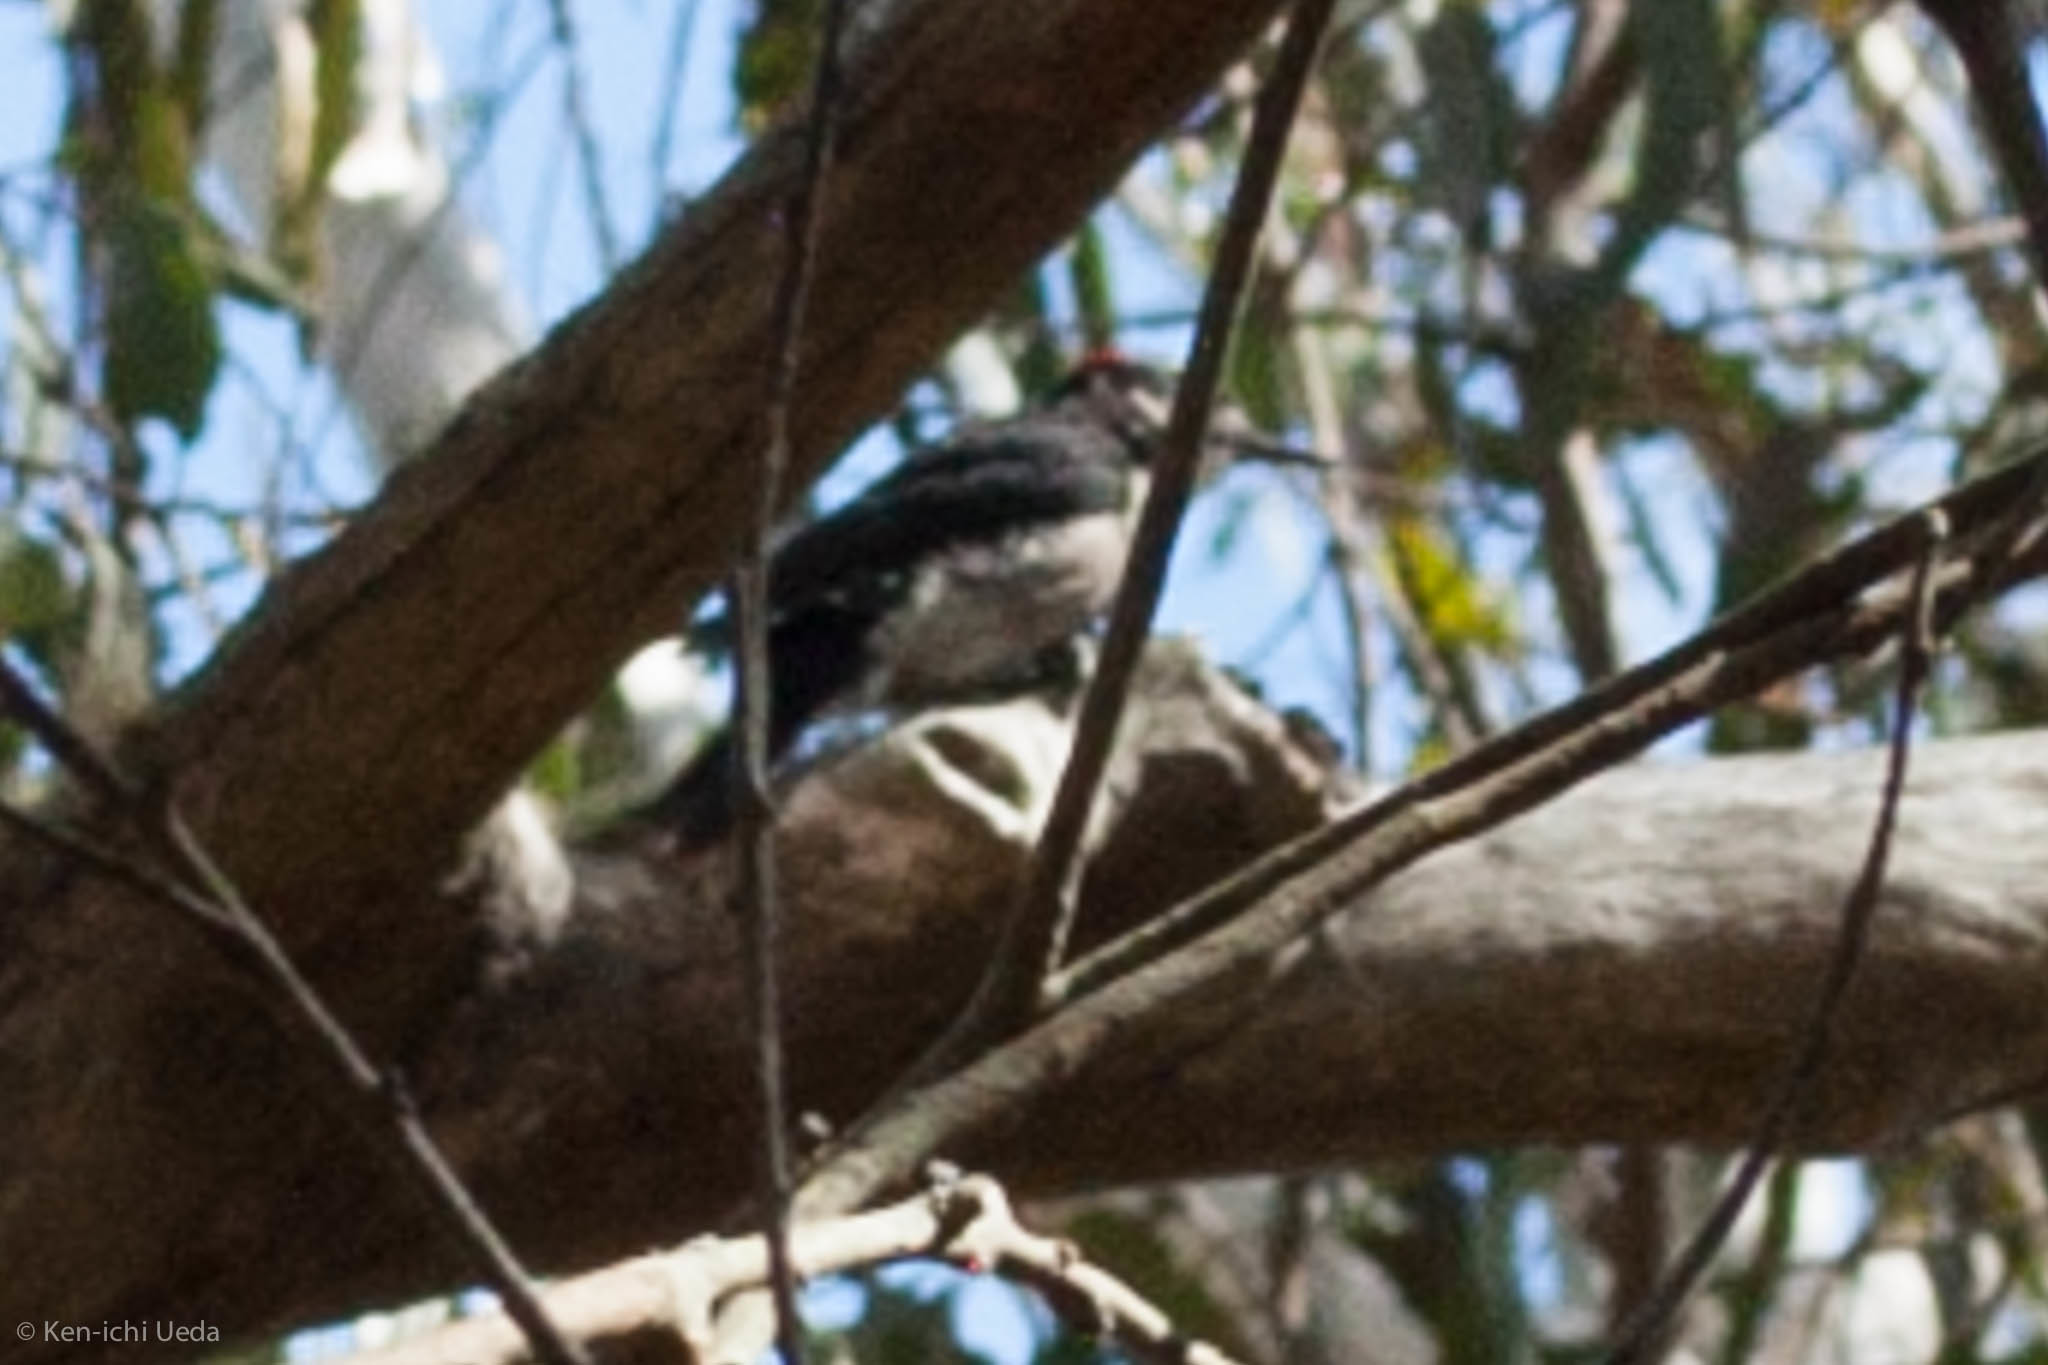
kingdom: Animalia
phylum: Chordata
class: Aves
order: Piciformes
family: Picidae
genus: Leuconotopicus
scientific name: Leuconotopicus villosus
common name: Hairy woodpecker
